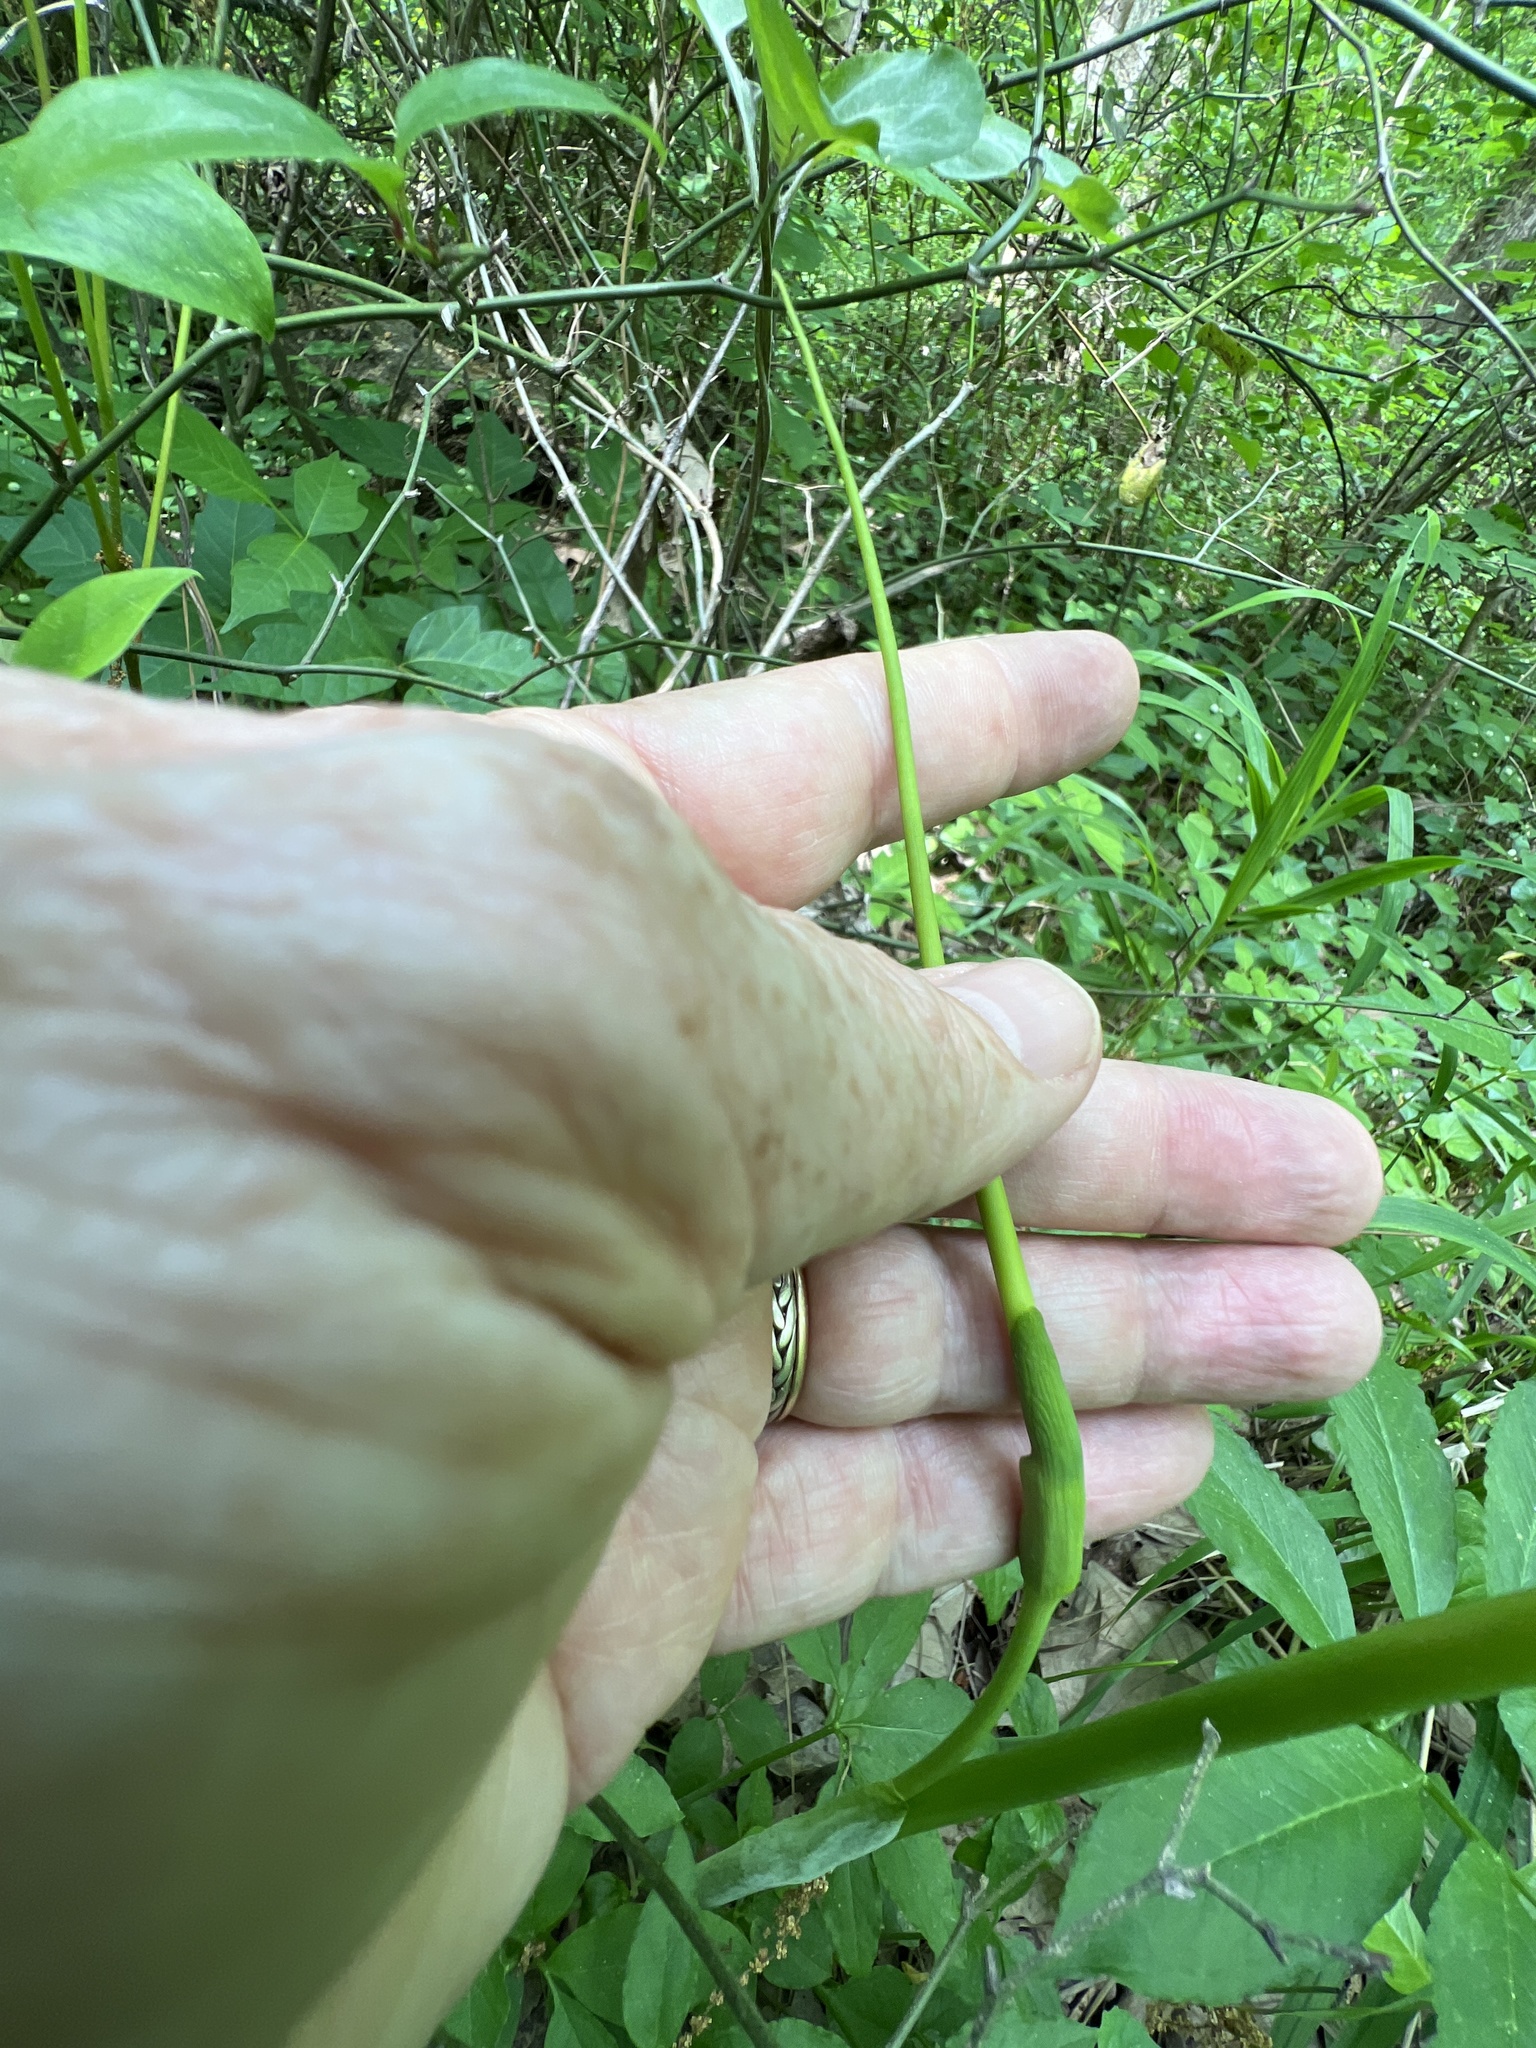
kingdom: Plantae
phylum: Tracheophyta
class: Liliopsida
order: Alismatales
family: Araceae
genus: Arisaema
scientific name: Arisaema dracontium
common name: Dragon-arum
